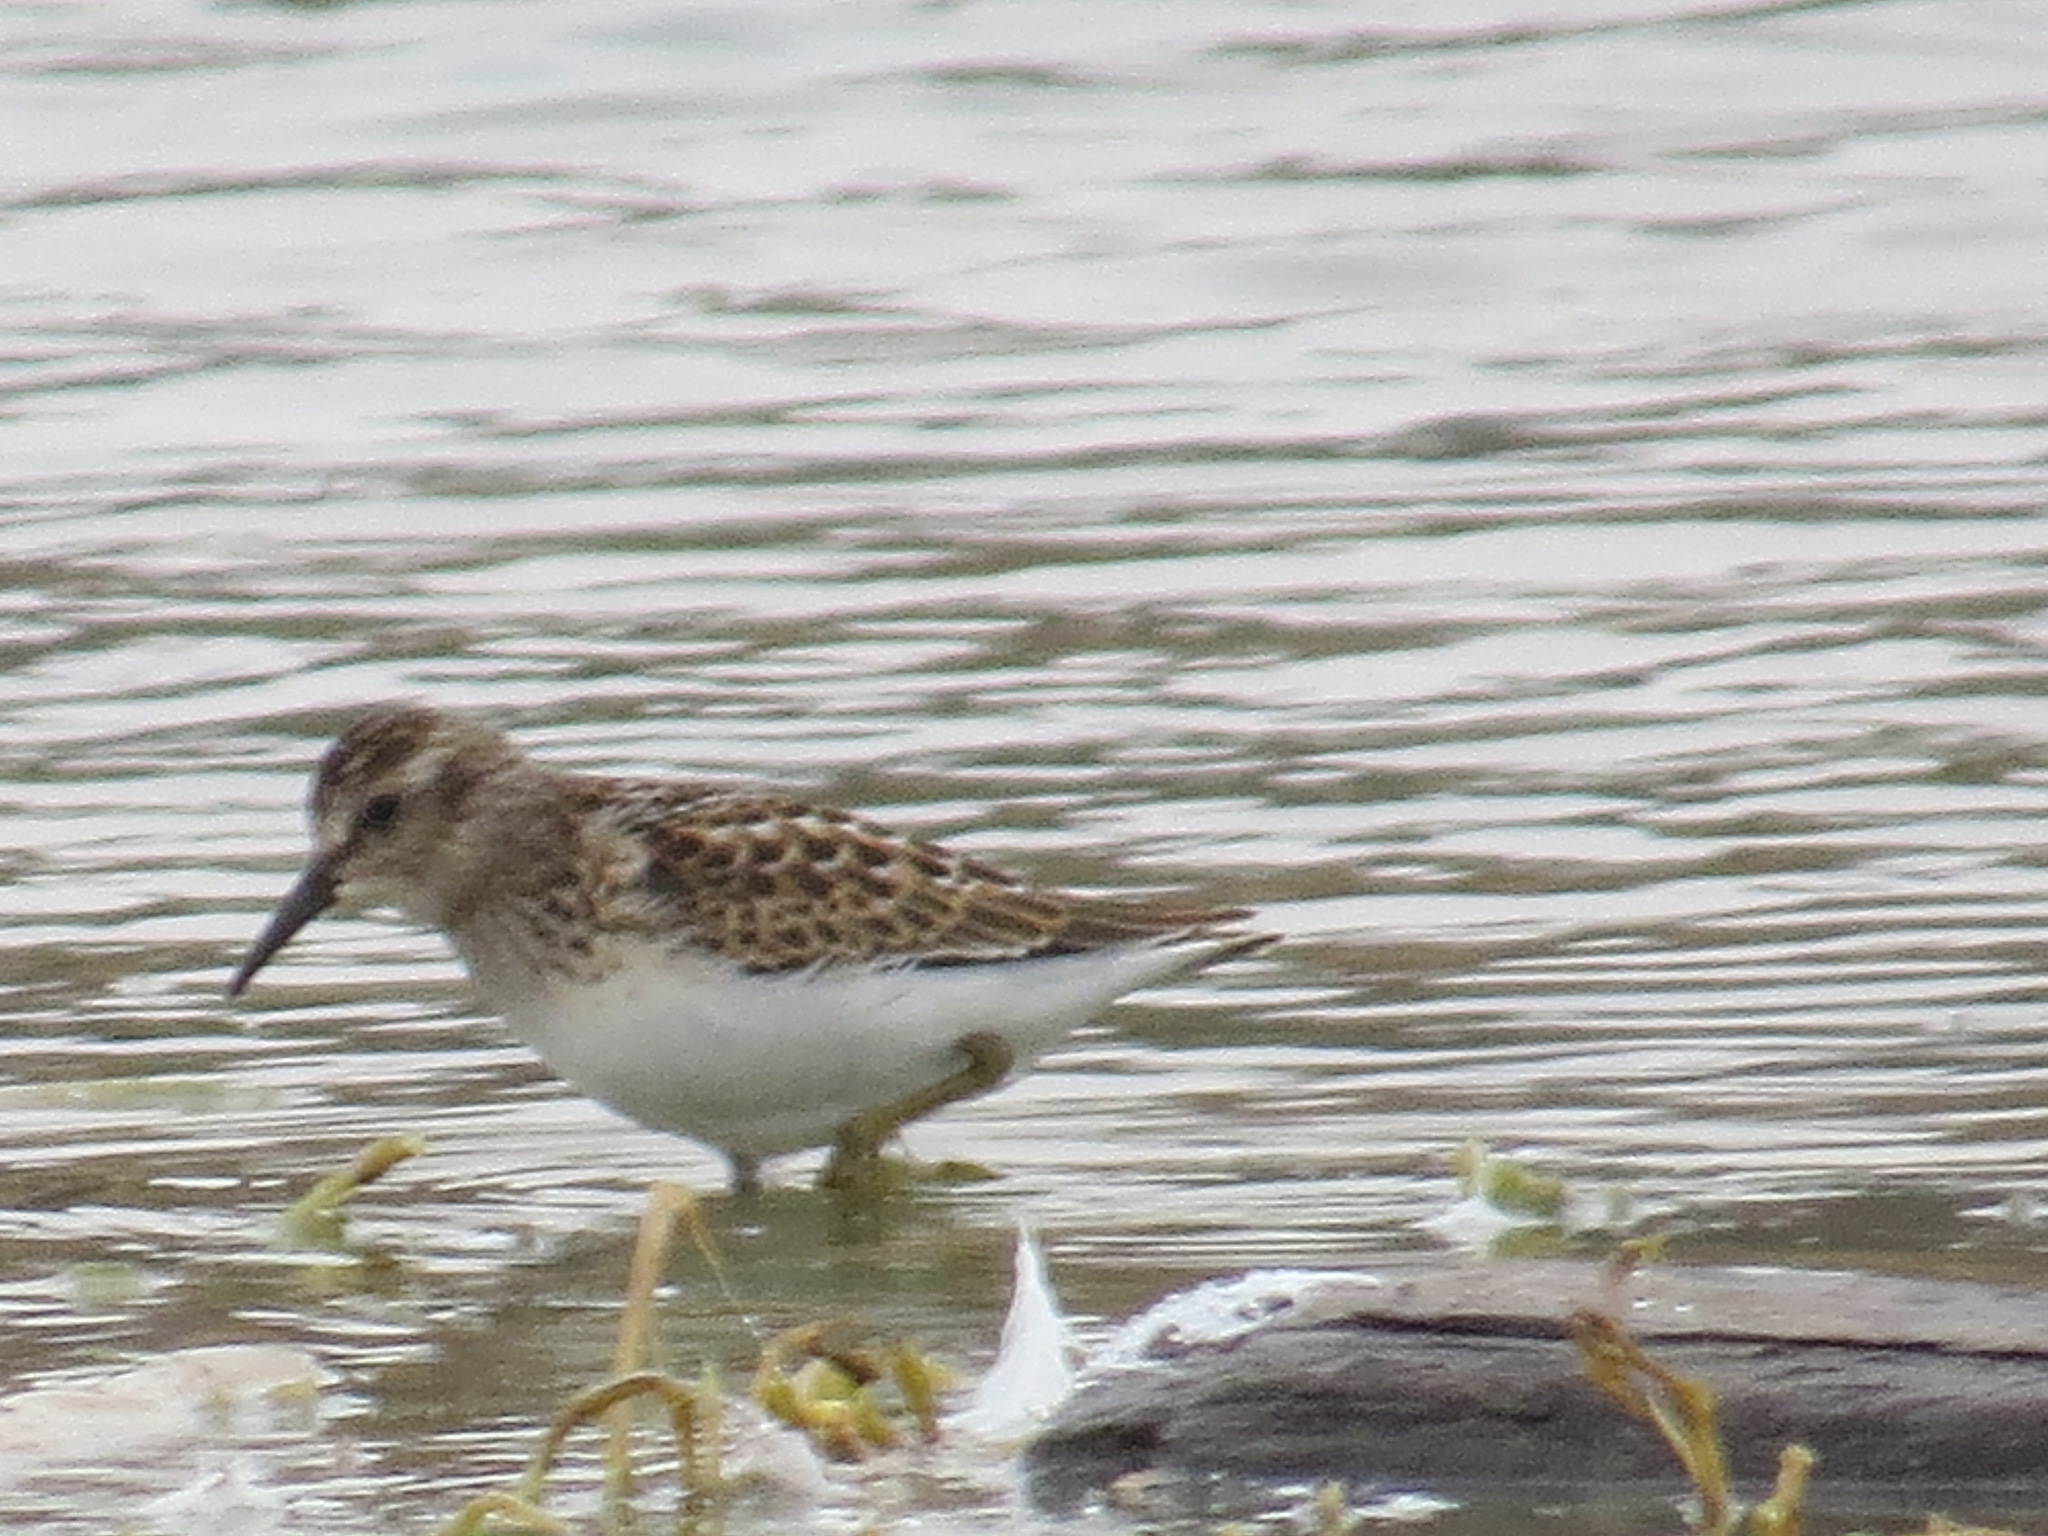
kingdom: Animalia
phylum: Chordata
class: Aves
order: Charadriiformes
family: Scolopacidae
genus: Calidris
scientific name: Calidris minutilla
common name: Least sandpiper
